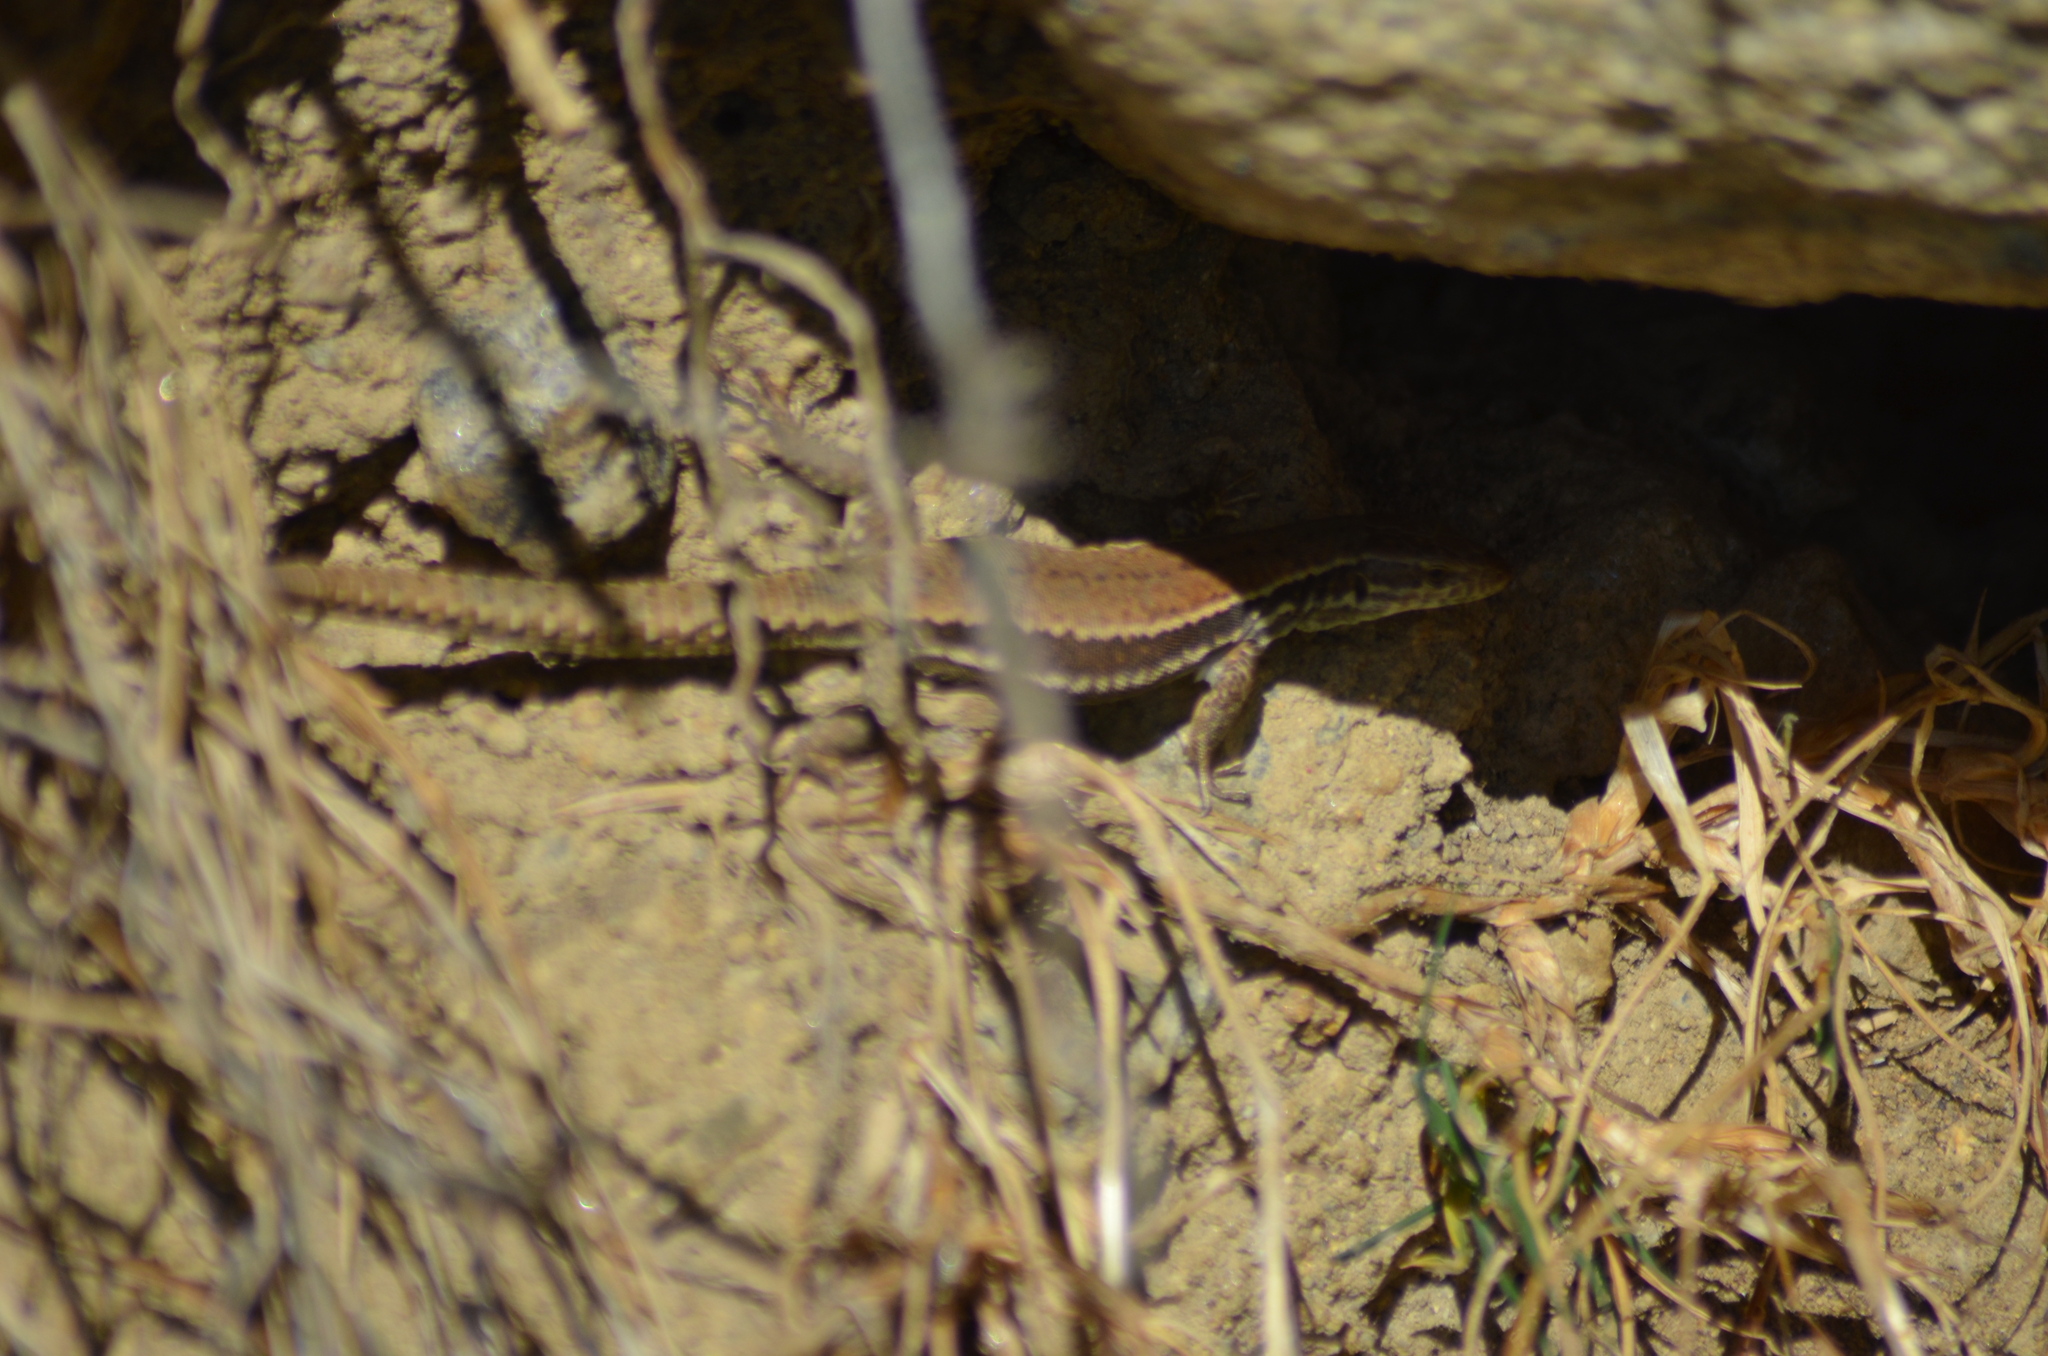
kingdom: Animalia
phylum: Chordata
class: Squamata
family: Lacertidae
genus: Podarcis
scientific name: Podarcis muralis
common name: Common wall lizard
